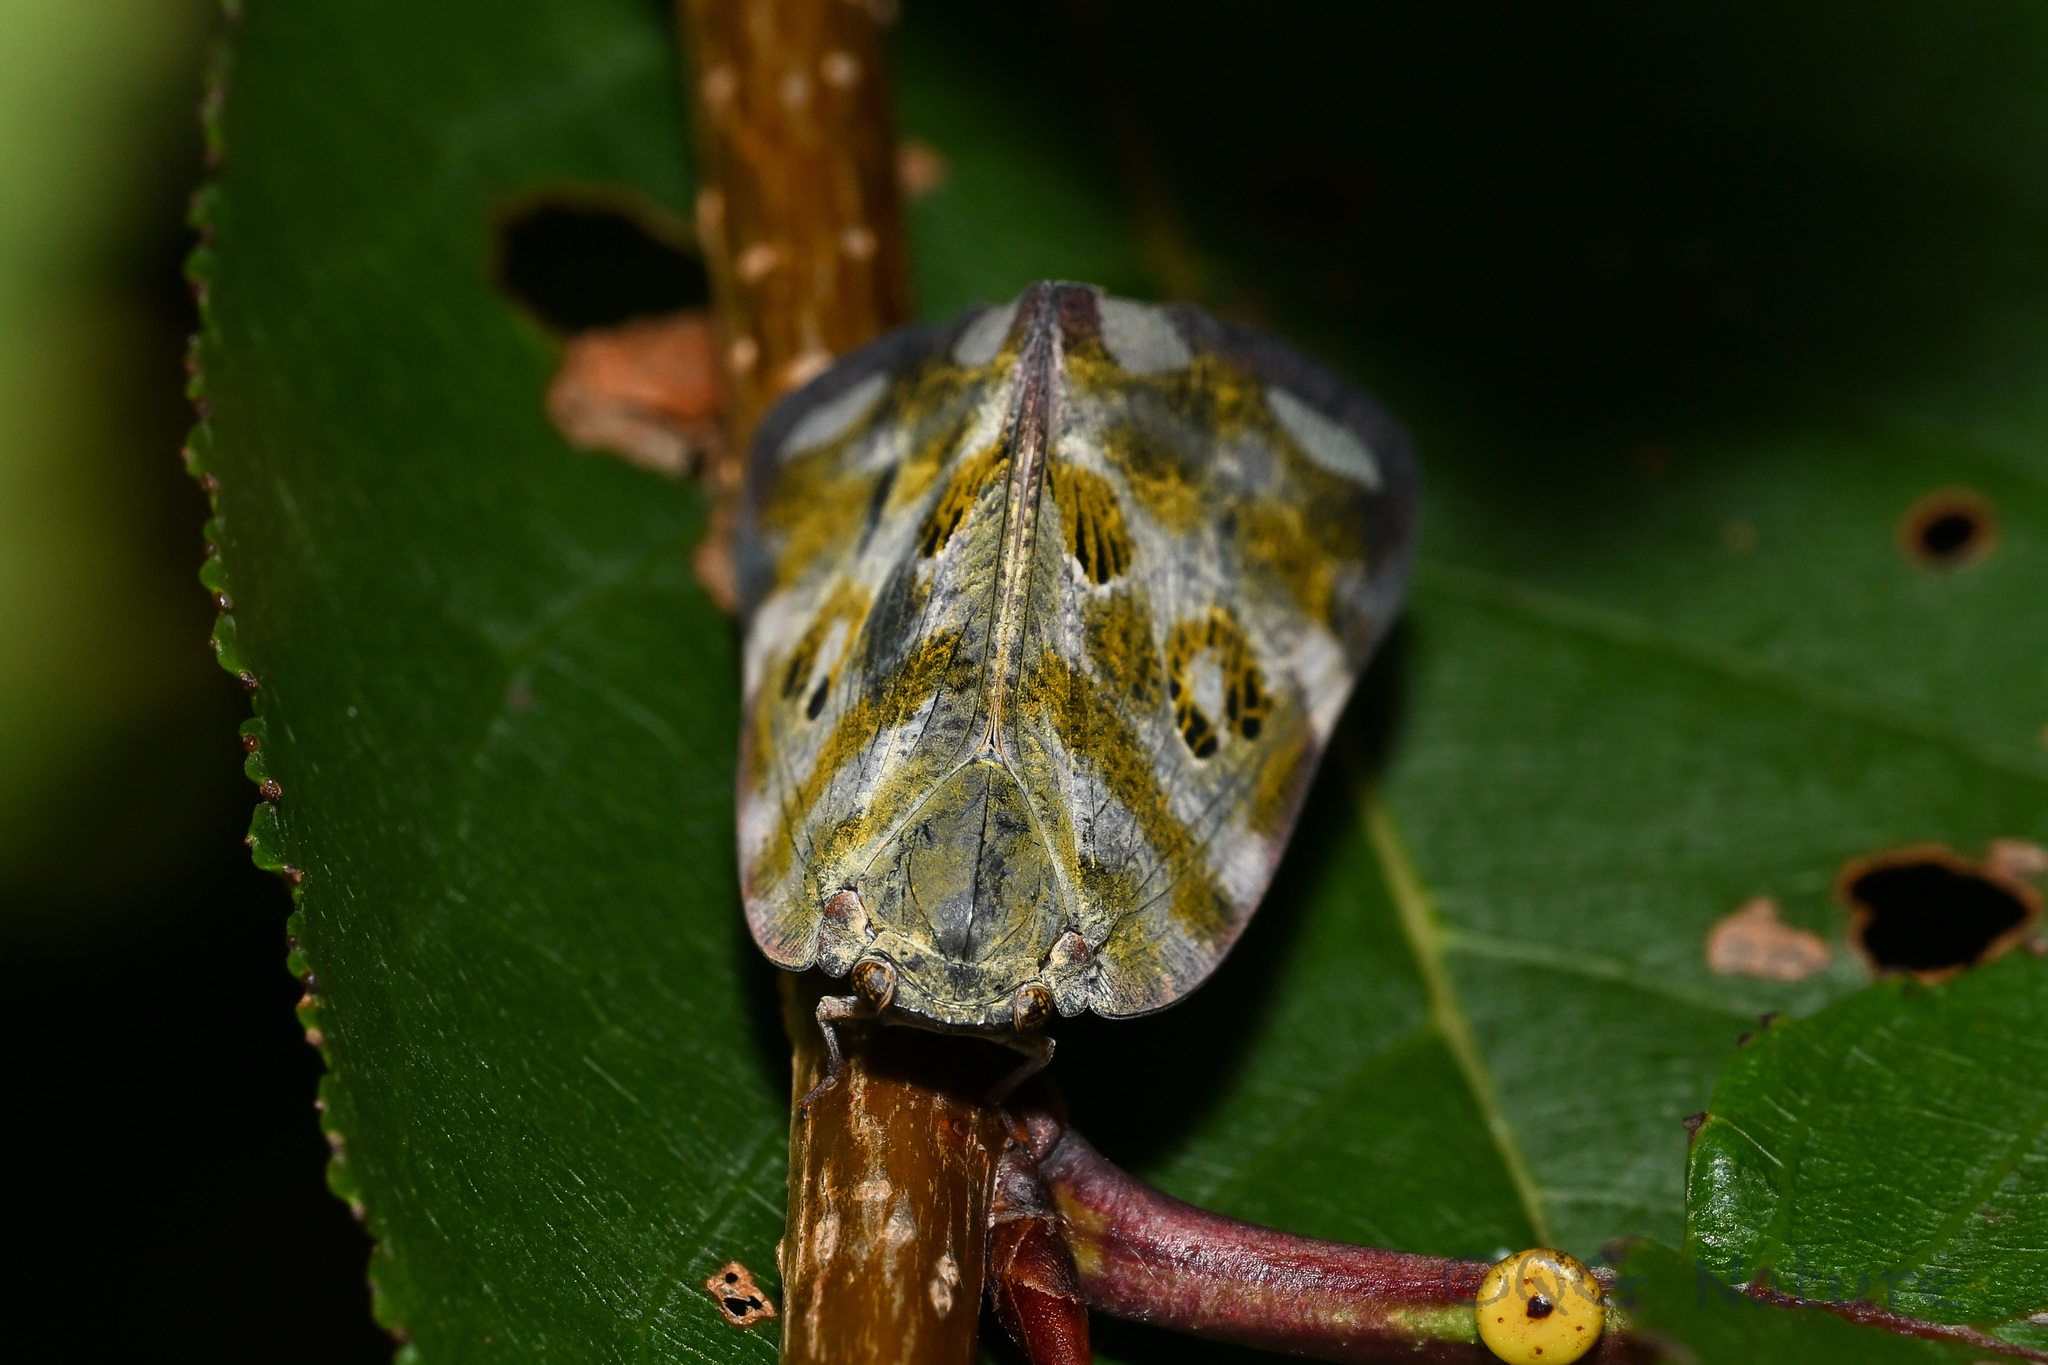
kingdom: Animalia
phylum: Arthropoda
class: Insecta
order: Hemiptera
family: Ricaniidae
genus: Pochazia
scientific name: Pochazia discreta
